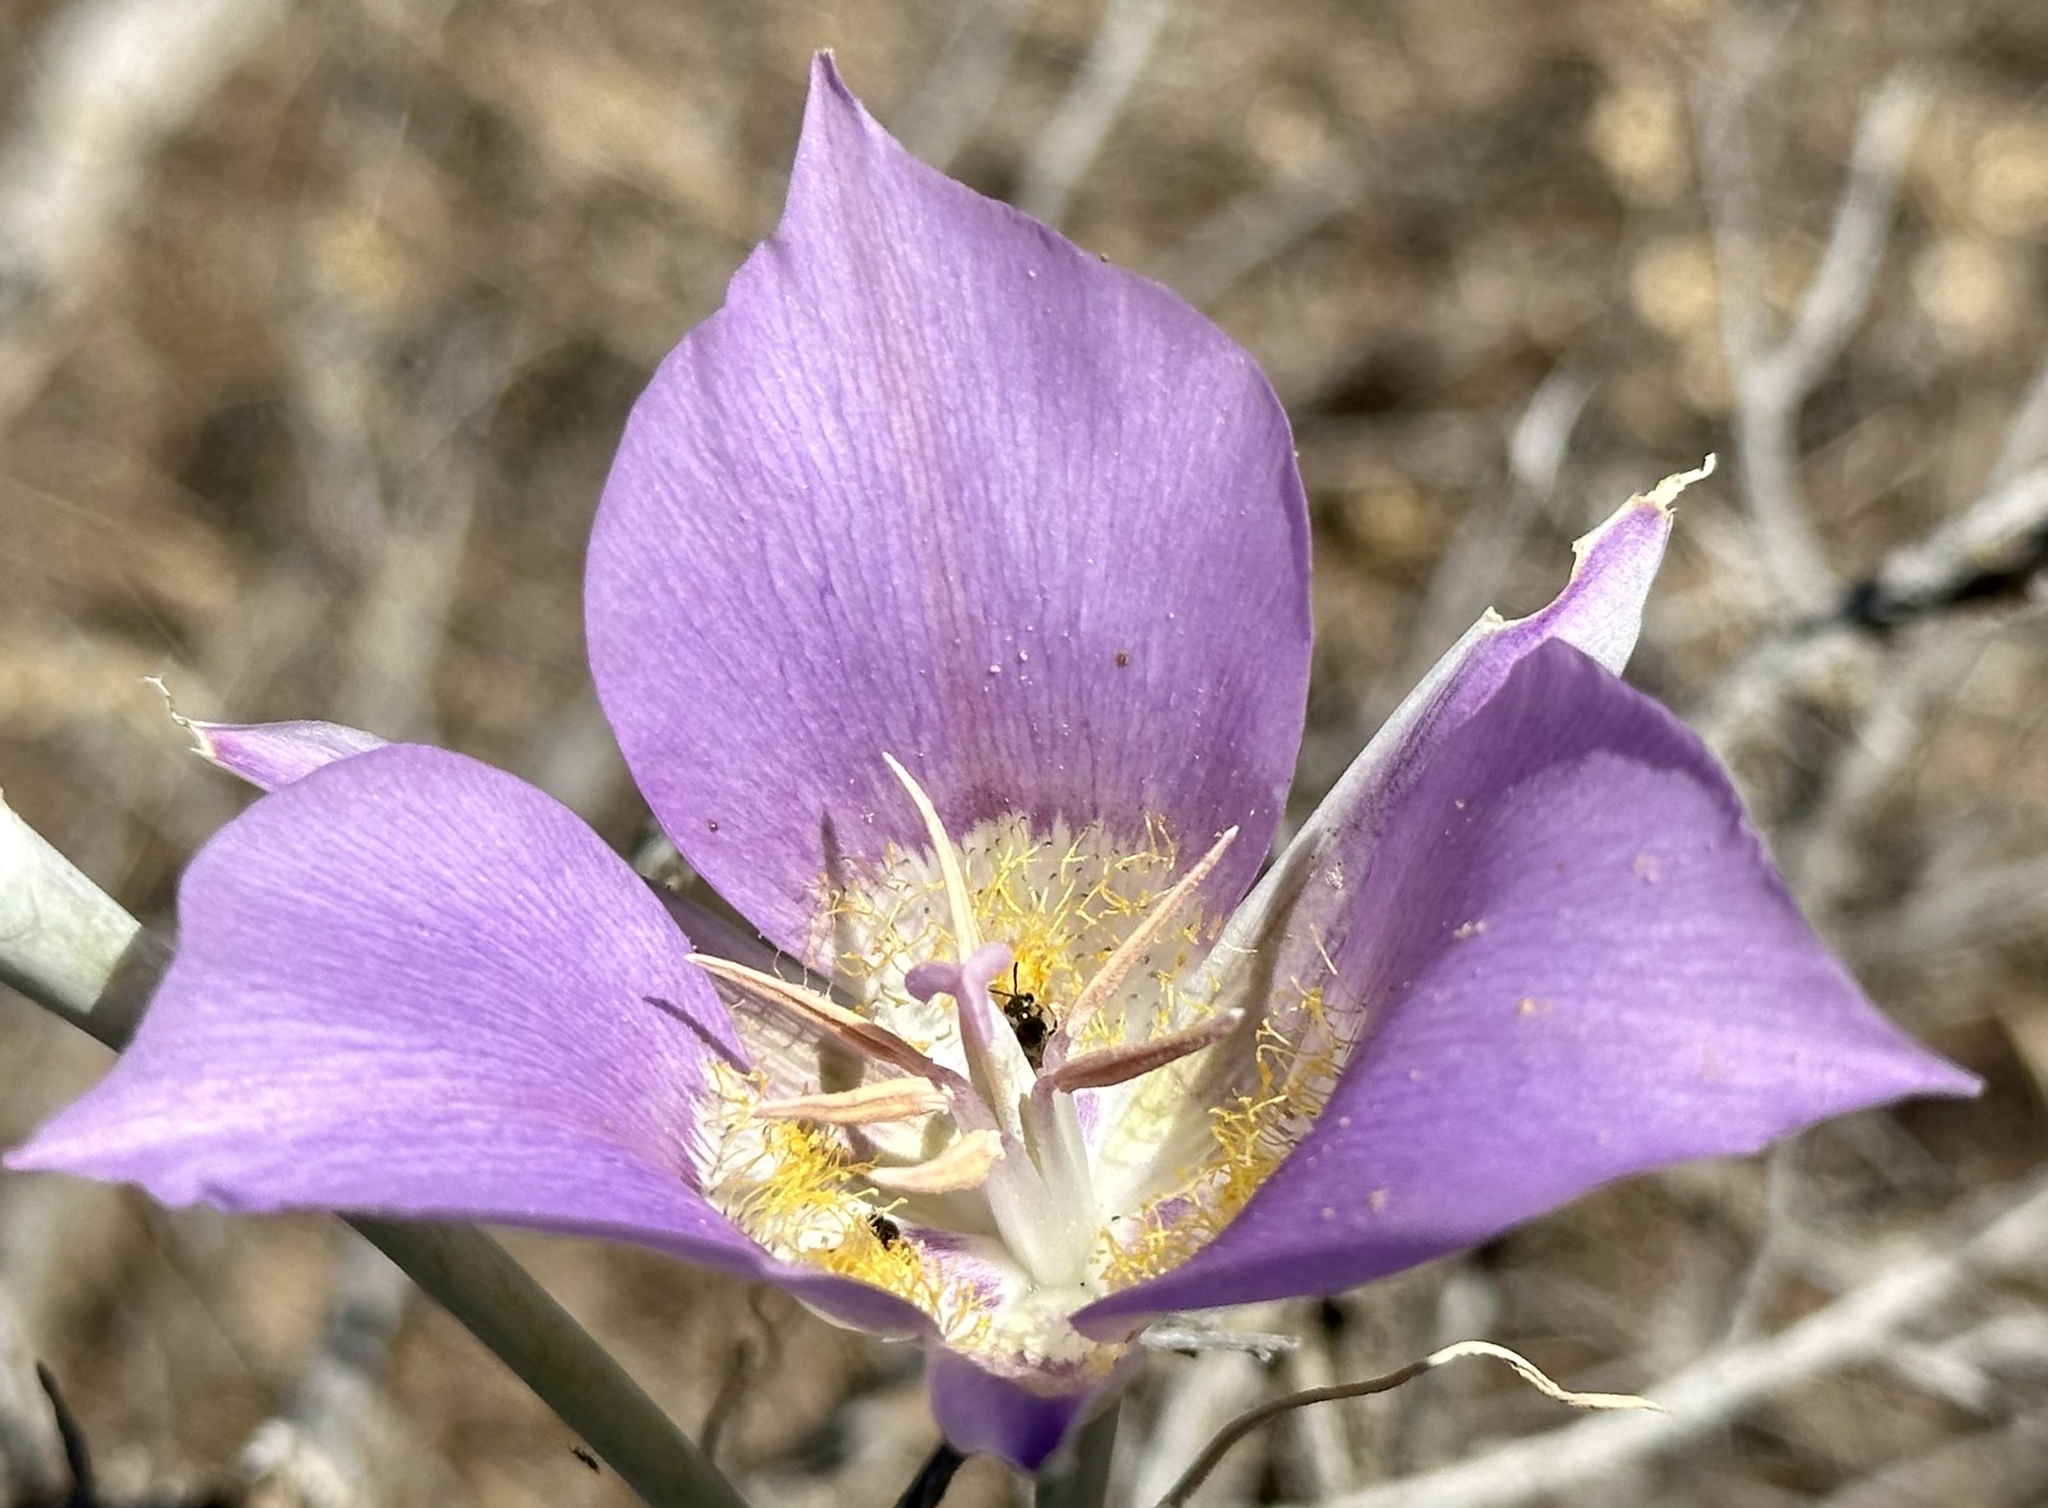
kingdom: Plantae
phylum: Tracheophyta
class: Liliopsida
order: Liliales
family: Liliaceae
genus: Calochortus
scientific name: Calochortus macrocarpus
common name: Green-band mariposa lily
